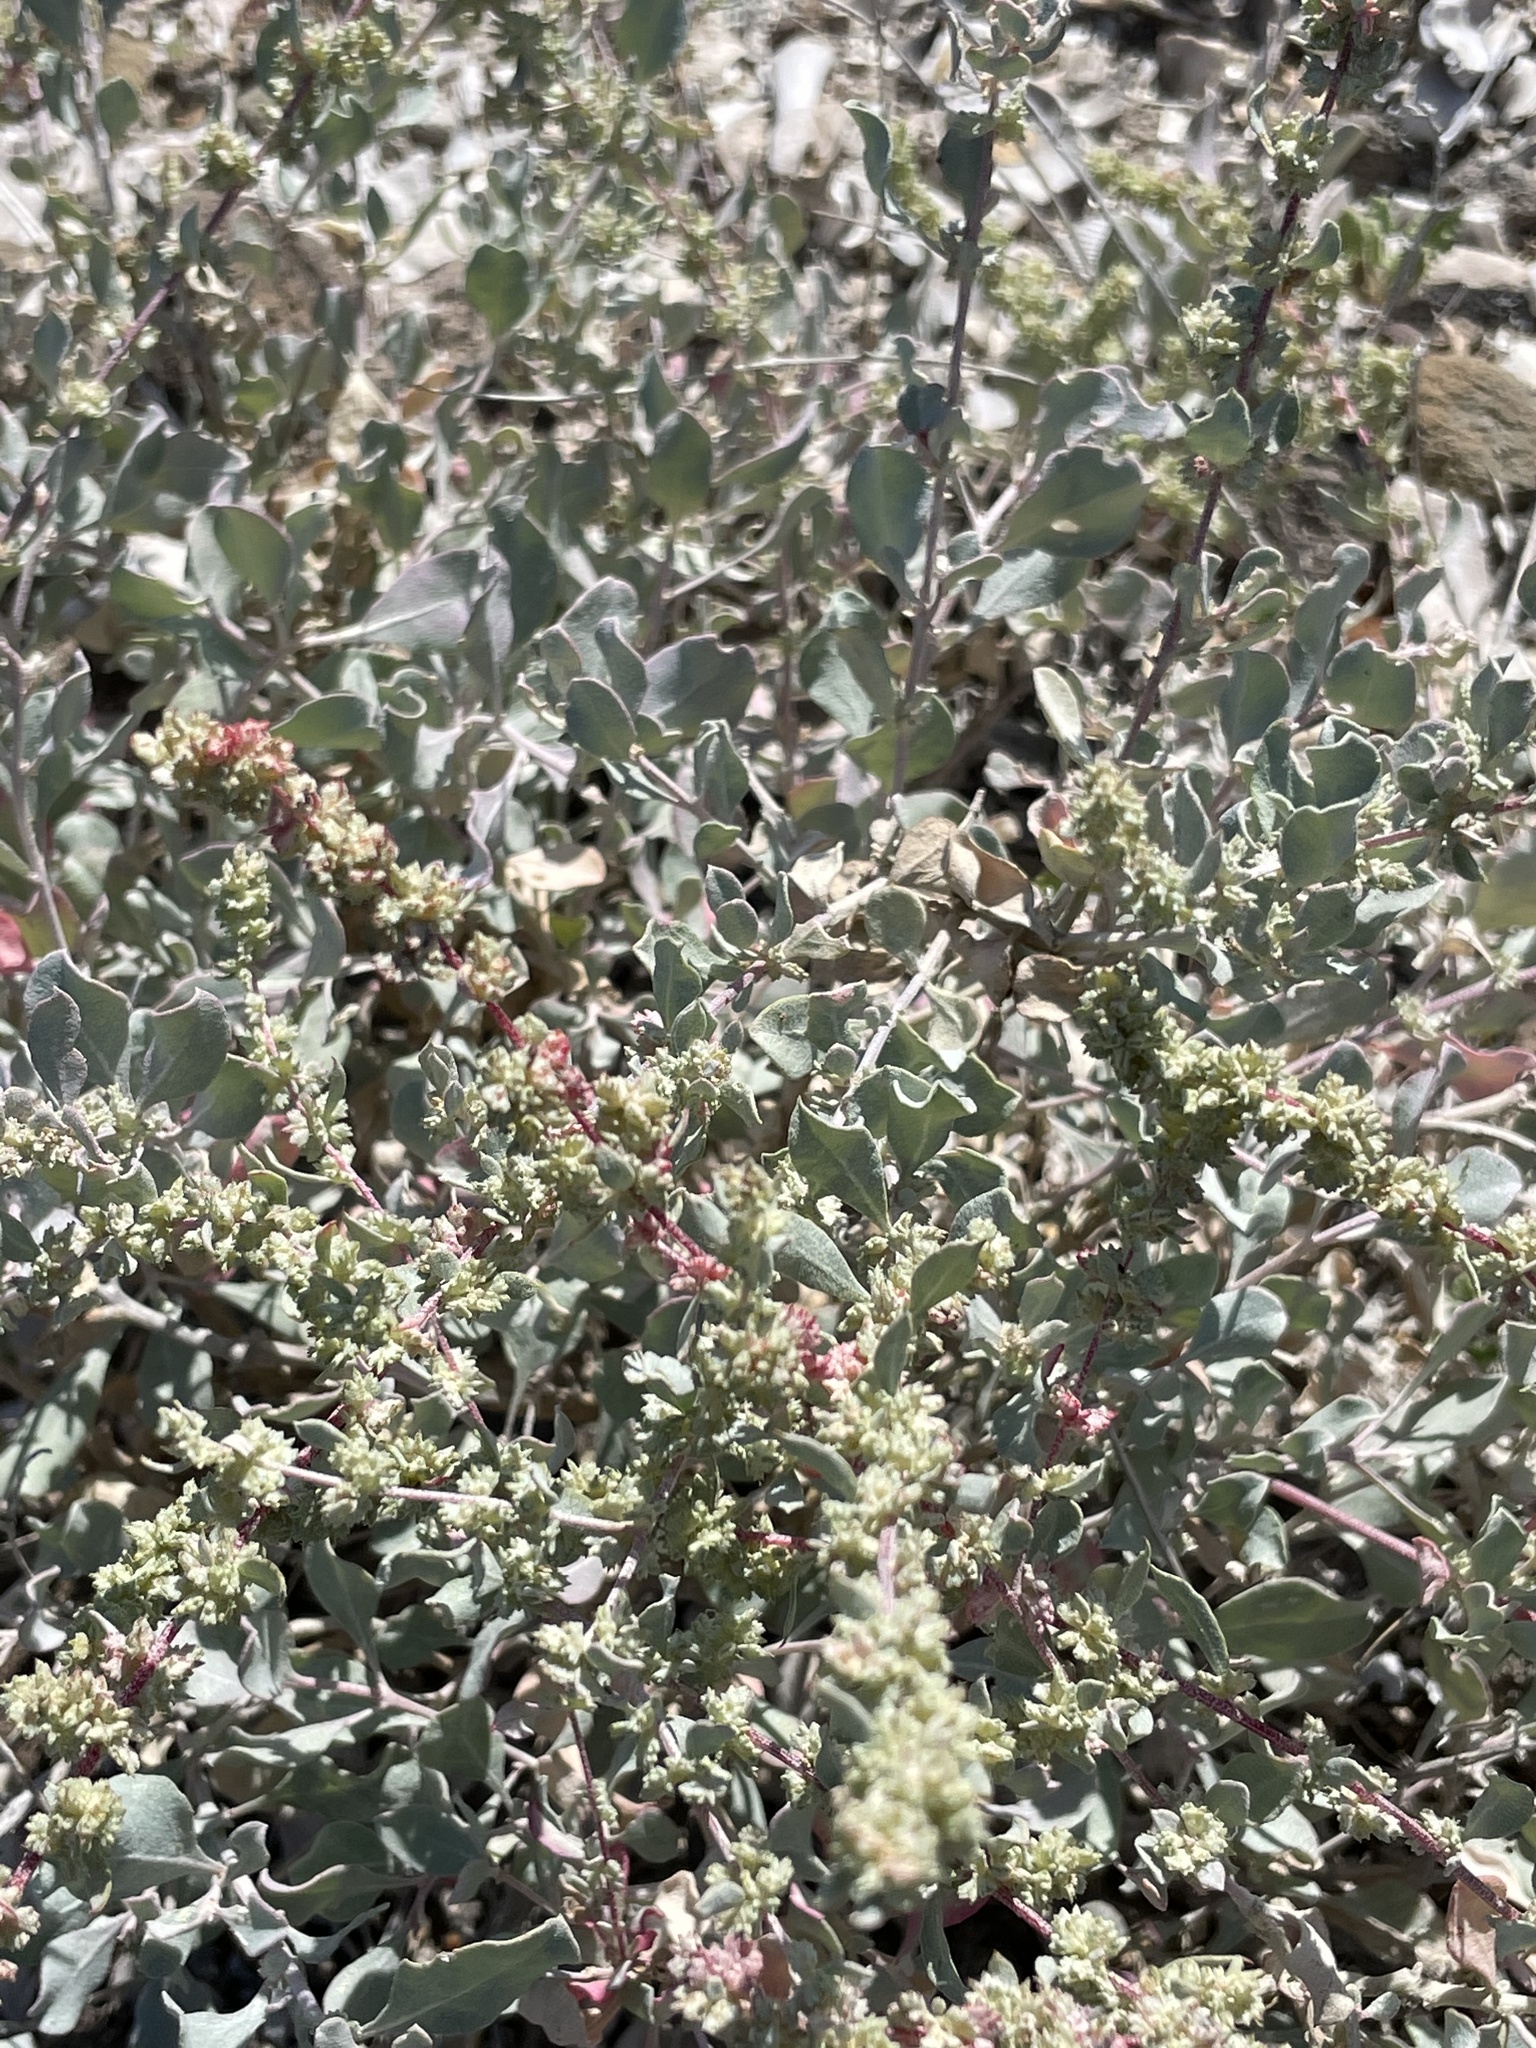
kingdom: Plantae
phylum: Tracheophyta
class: Magnoliopsida
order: Caryophyllales
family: Amaranthaceae
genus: Atriplex
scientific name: Atriplex barclayana
